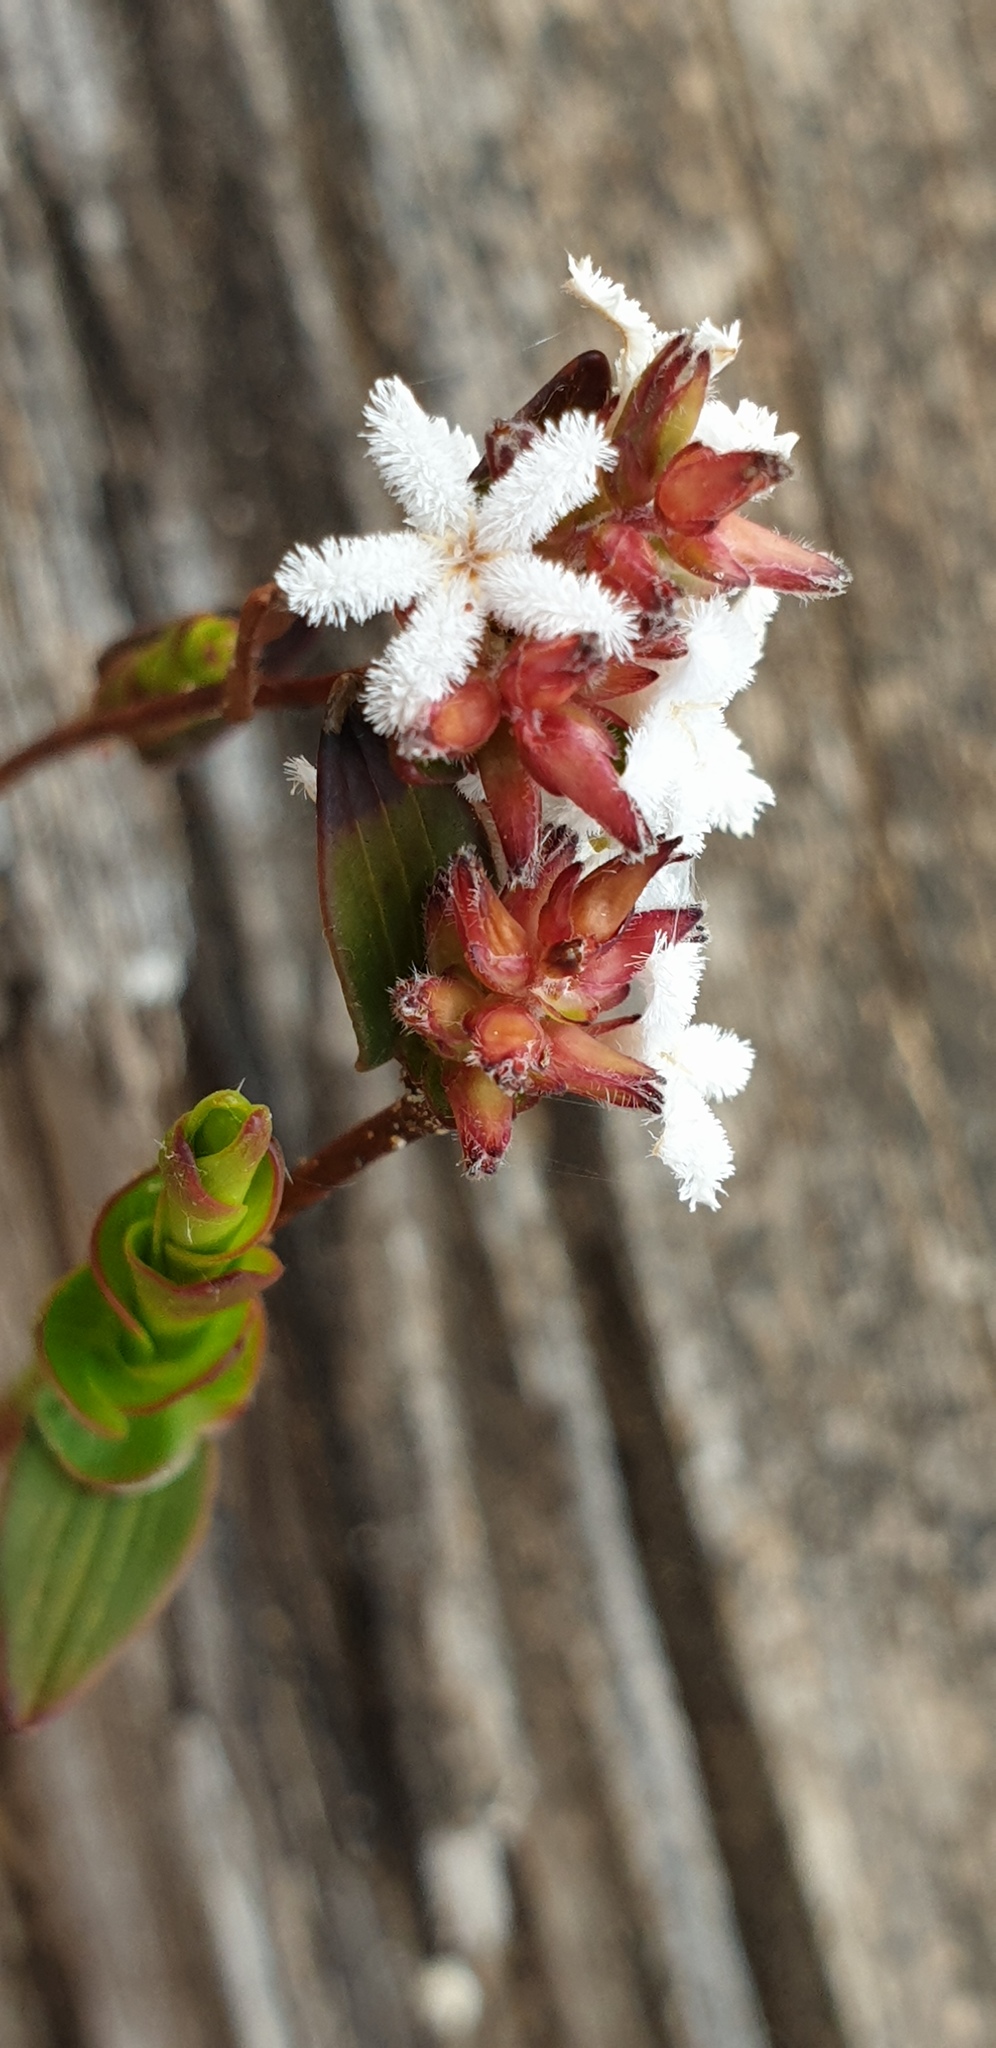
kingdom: Plantae
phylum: Tracheophyta
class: Magnoliopsida
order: Ericales
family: Ericaceae
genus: Leucopogon
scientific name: Leucopogon concurvus
